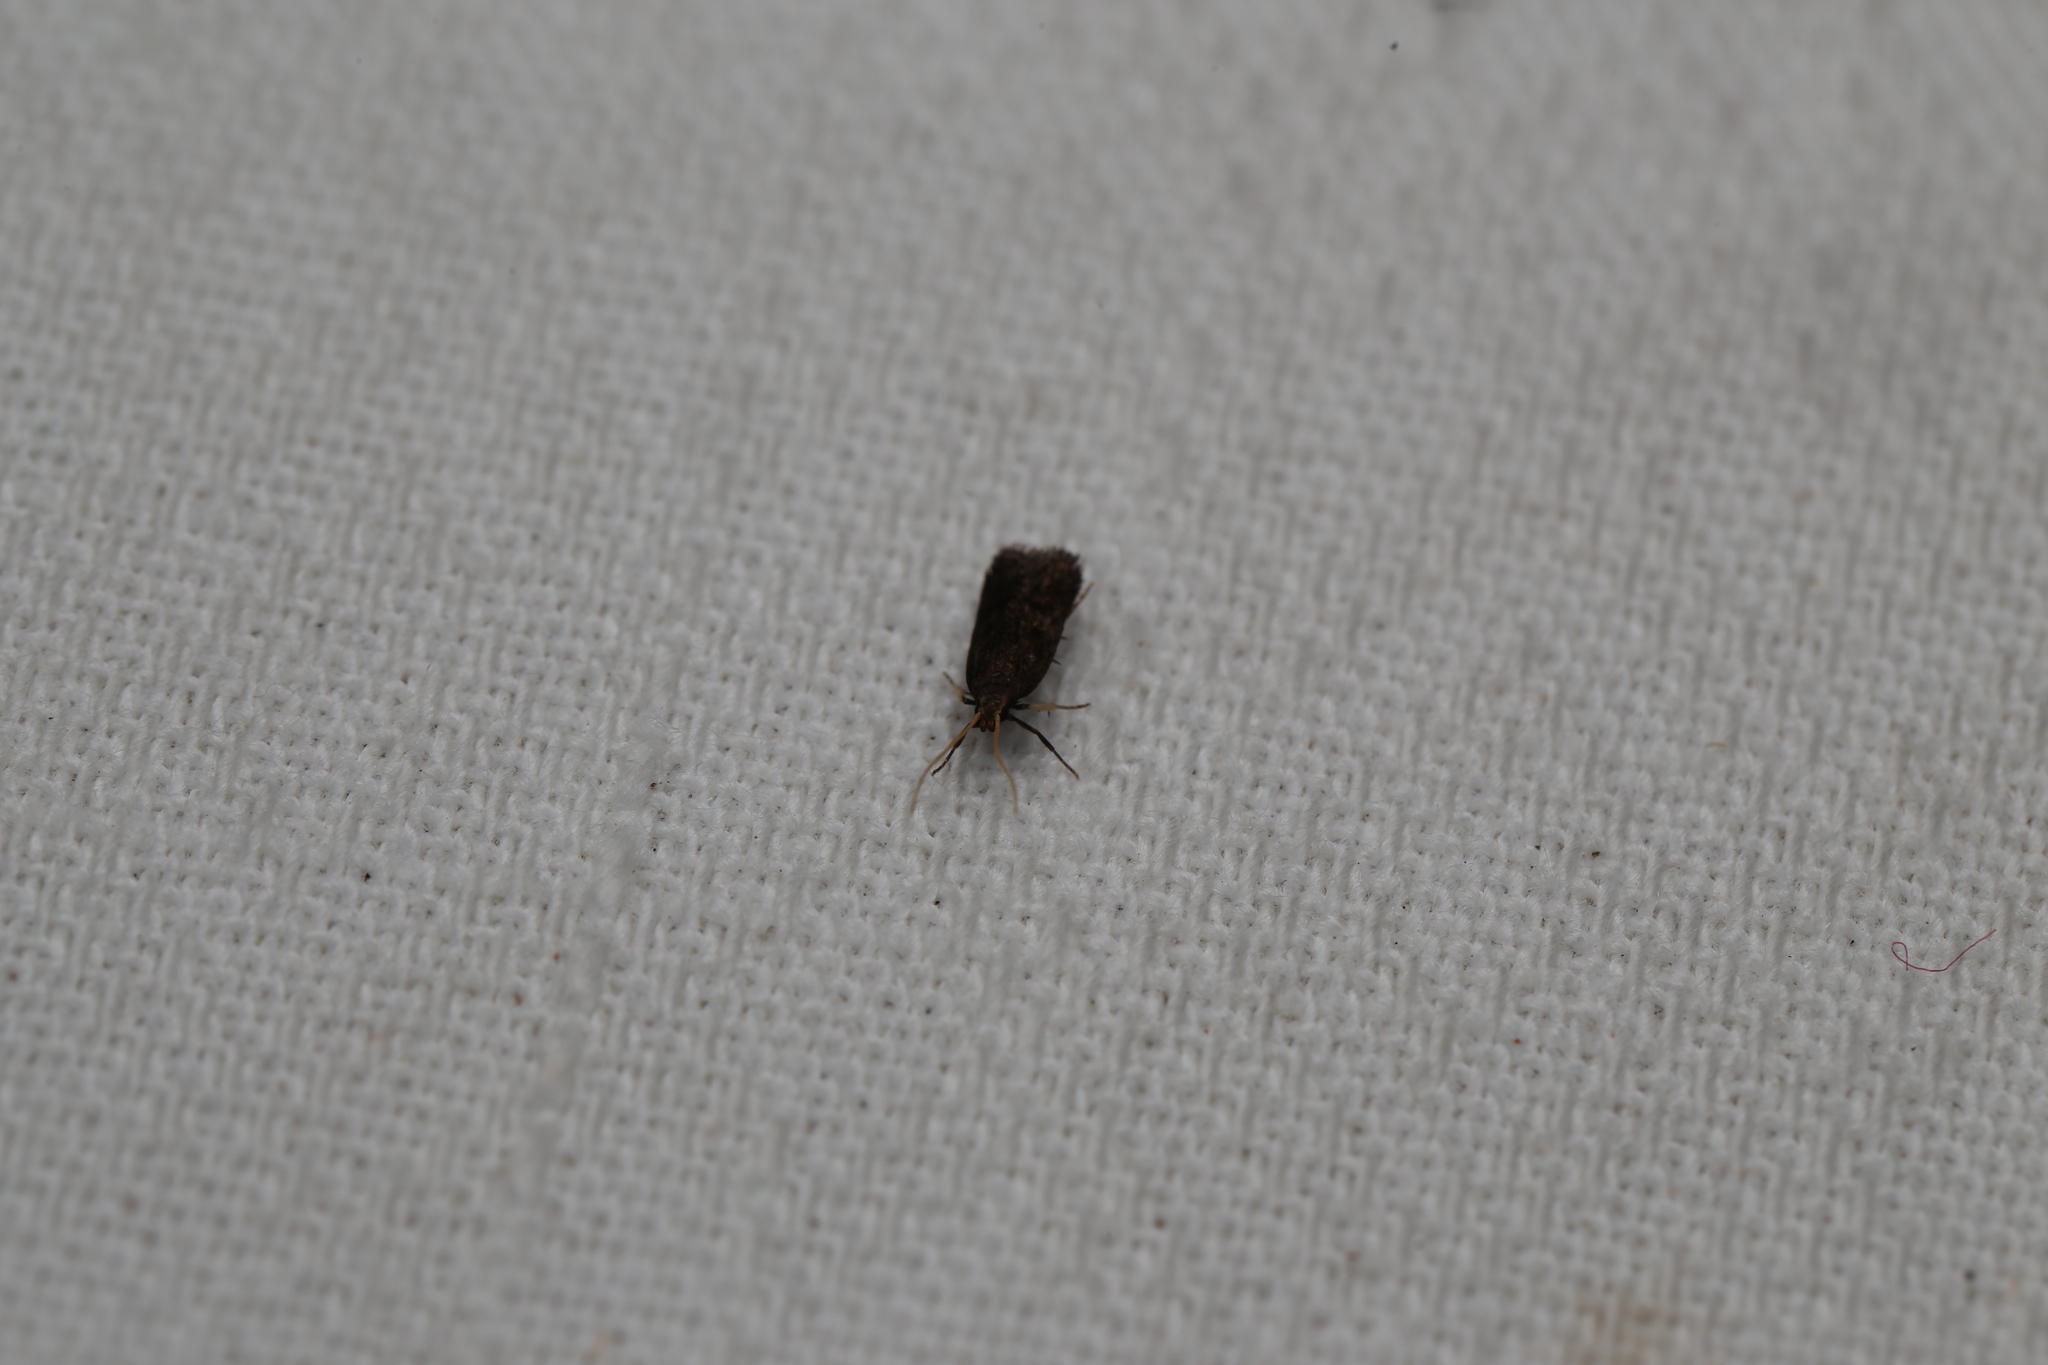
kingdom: Animalia
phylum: Arthropoda
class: Insecta
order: Lepidoptera
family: Lecithoceridae
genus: Lecithocera
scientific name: Lecithocera terrigena
